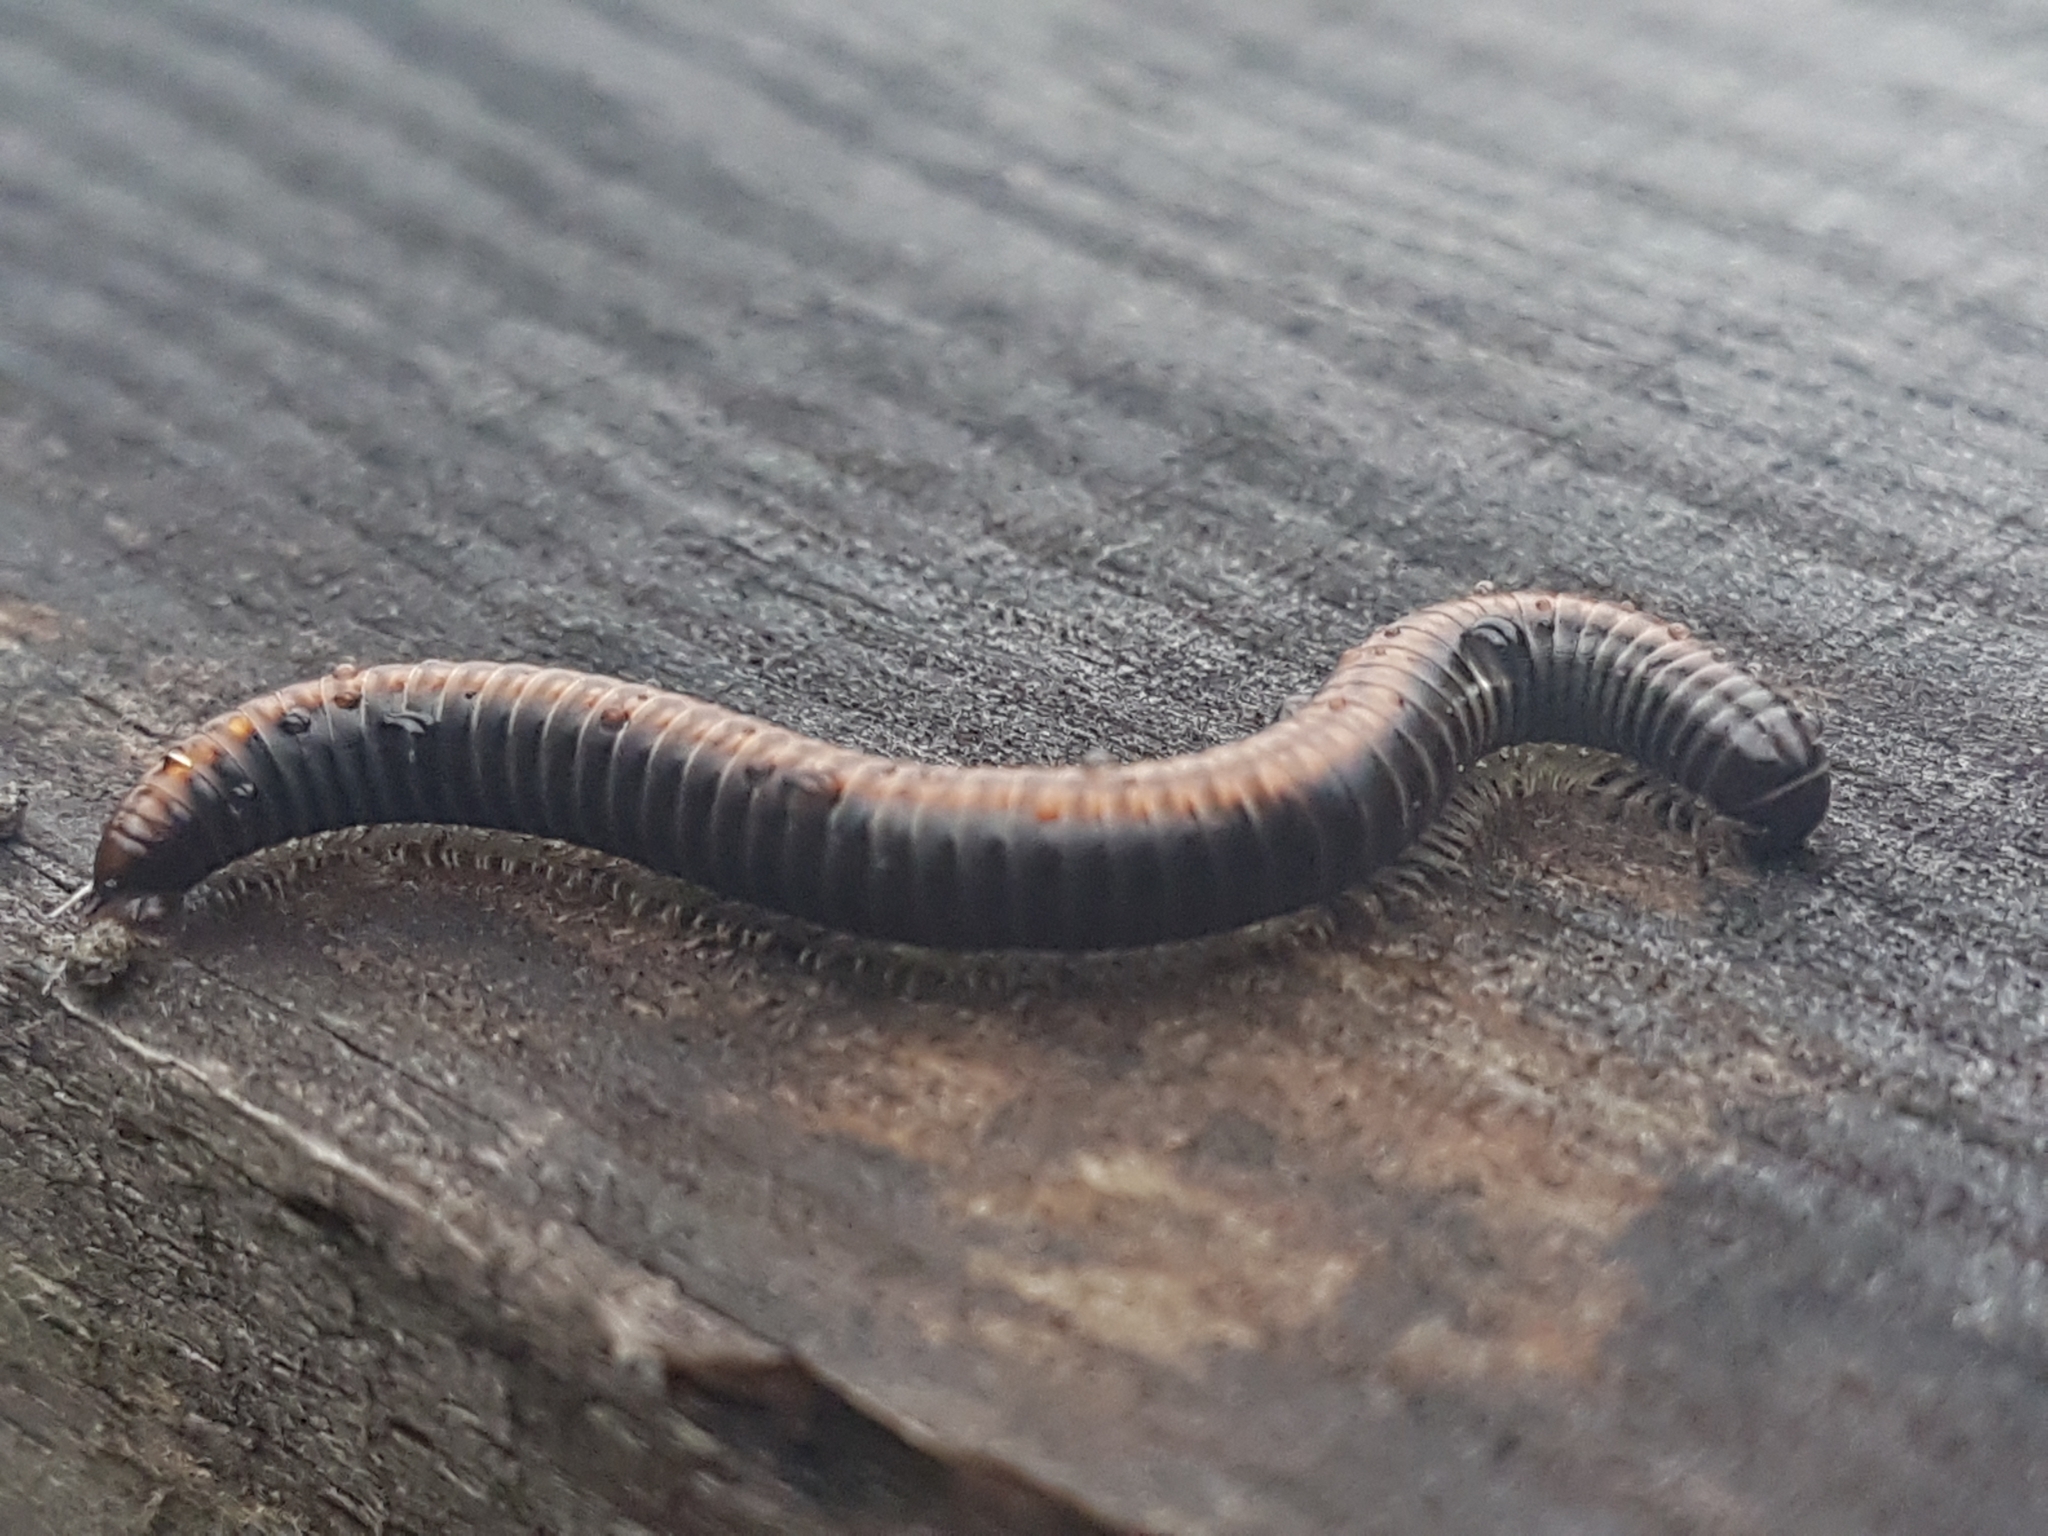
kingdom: Animalia
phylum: Arthropoda
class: Diplopoda
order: Julida
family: Julidae
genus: Ommatoiulus
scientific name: Ommatoiulus sabulosus
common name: Striped millipede
